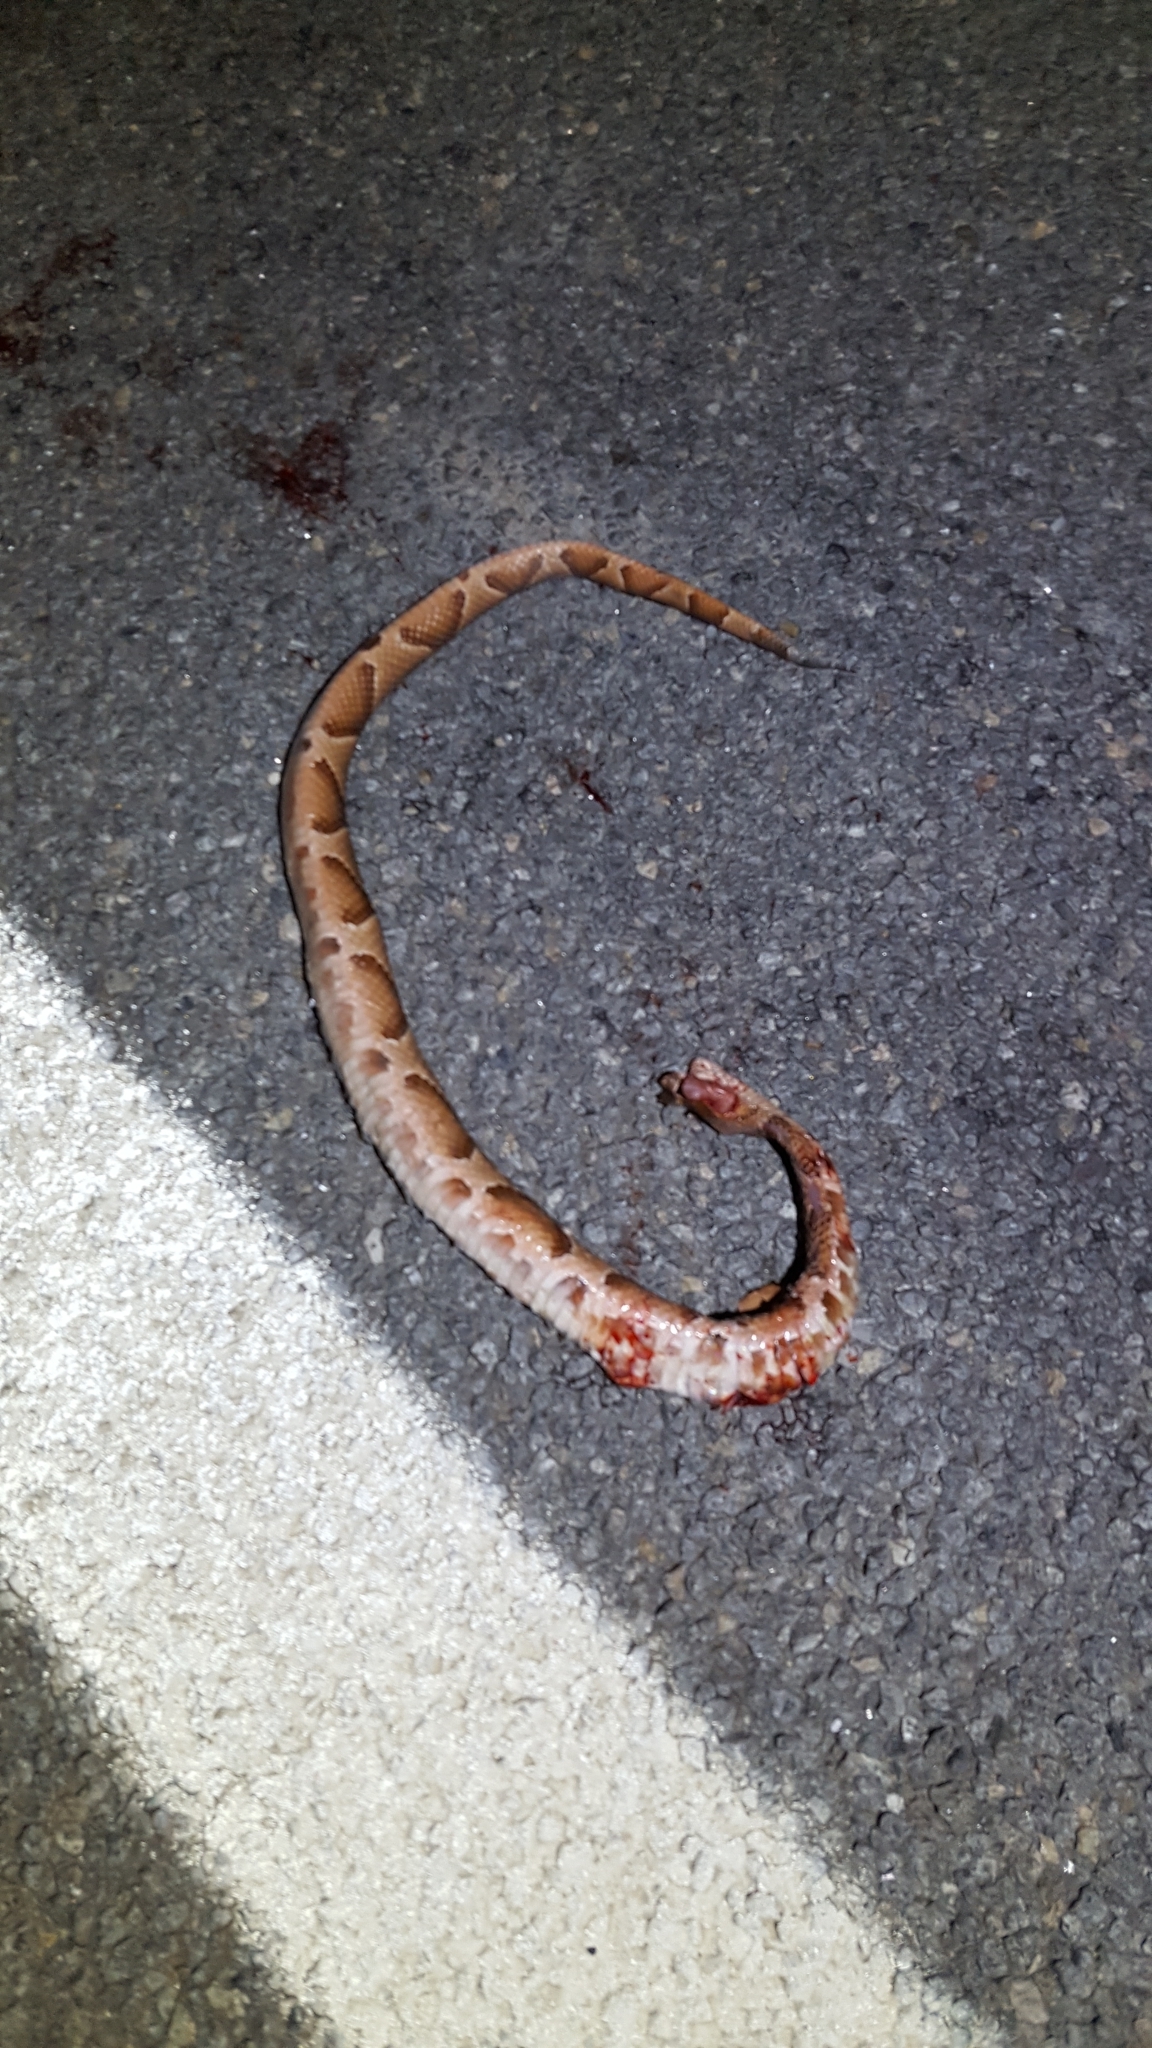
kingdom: Animalia
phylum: Chordata
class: Squamata
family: Viperidae
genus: Agkistrodon
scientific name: Agkistrodon contortrix
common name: Northern copperhead
